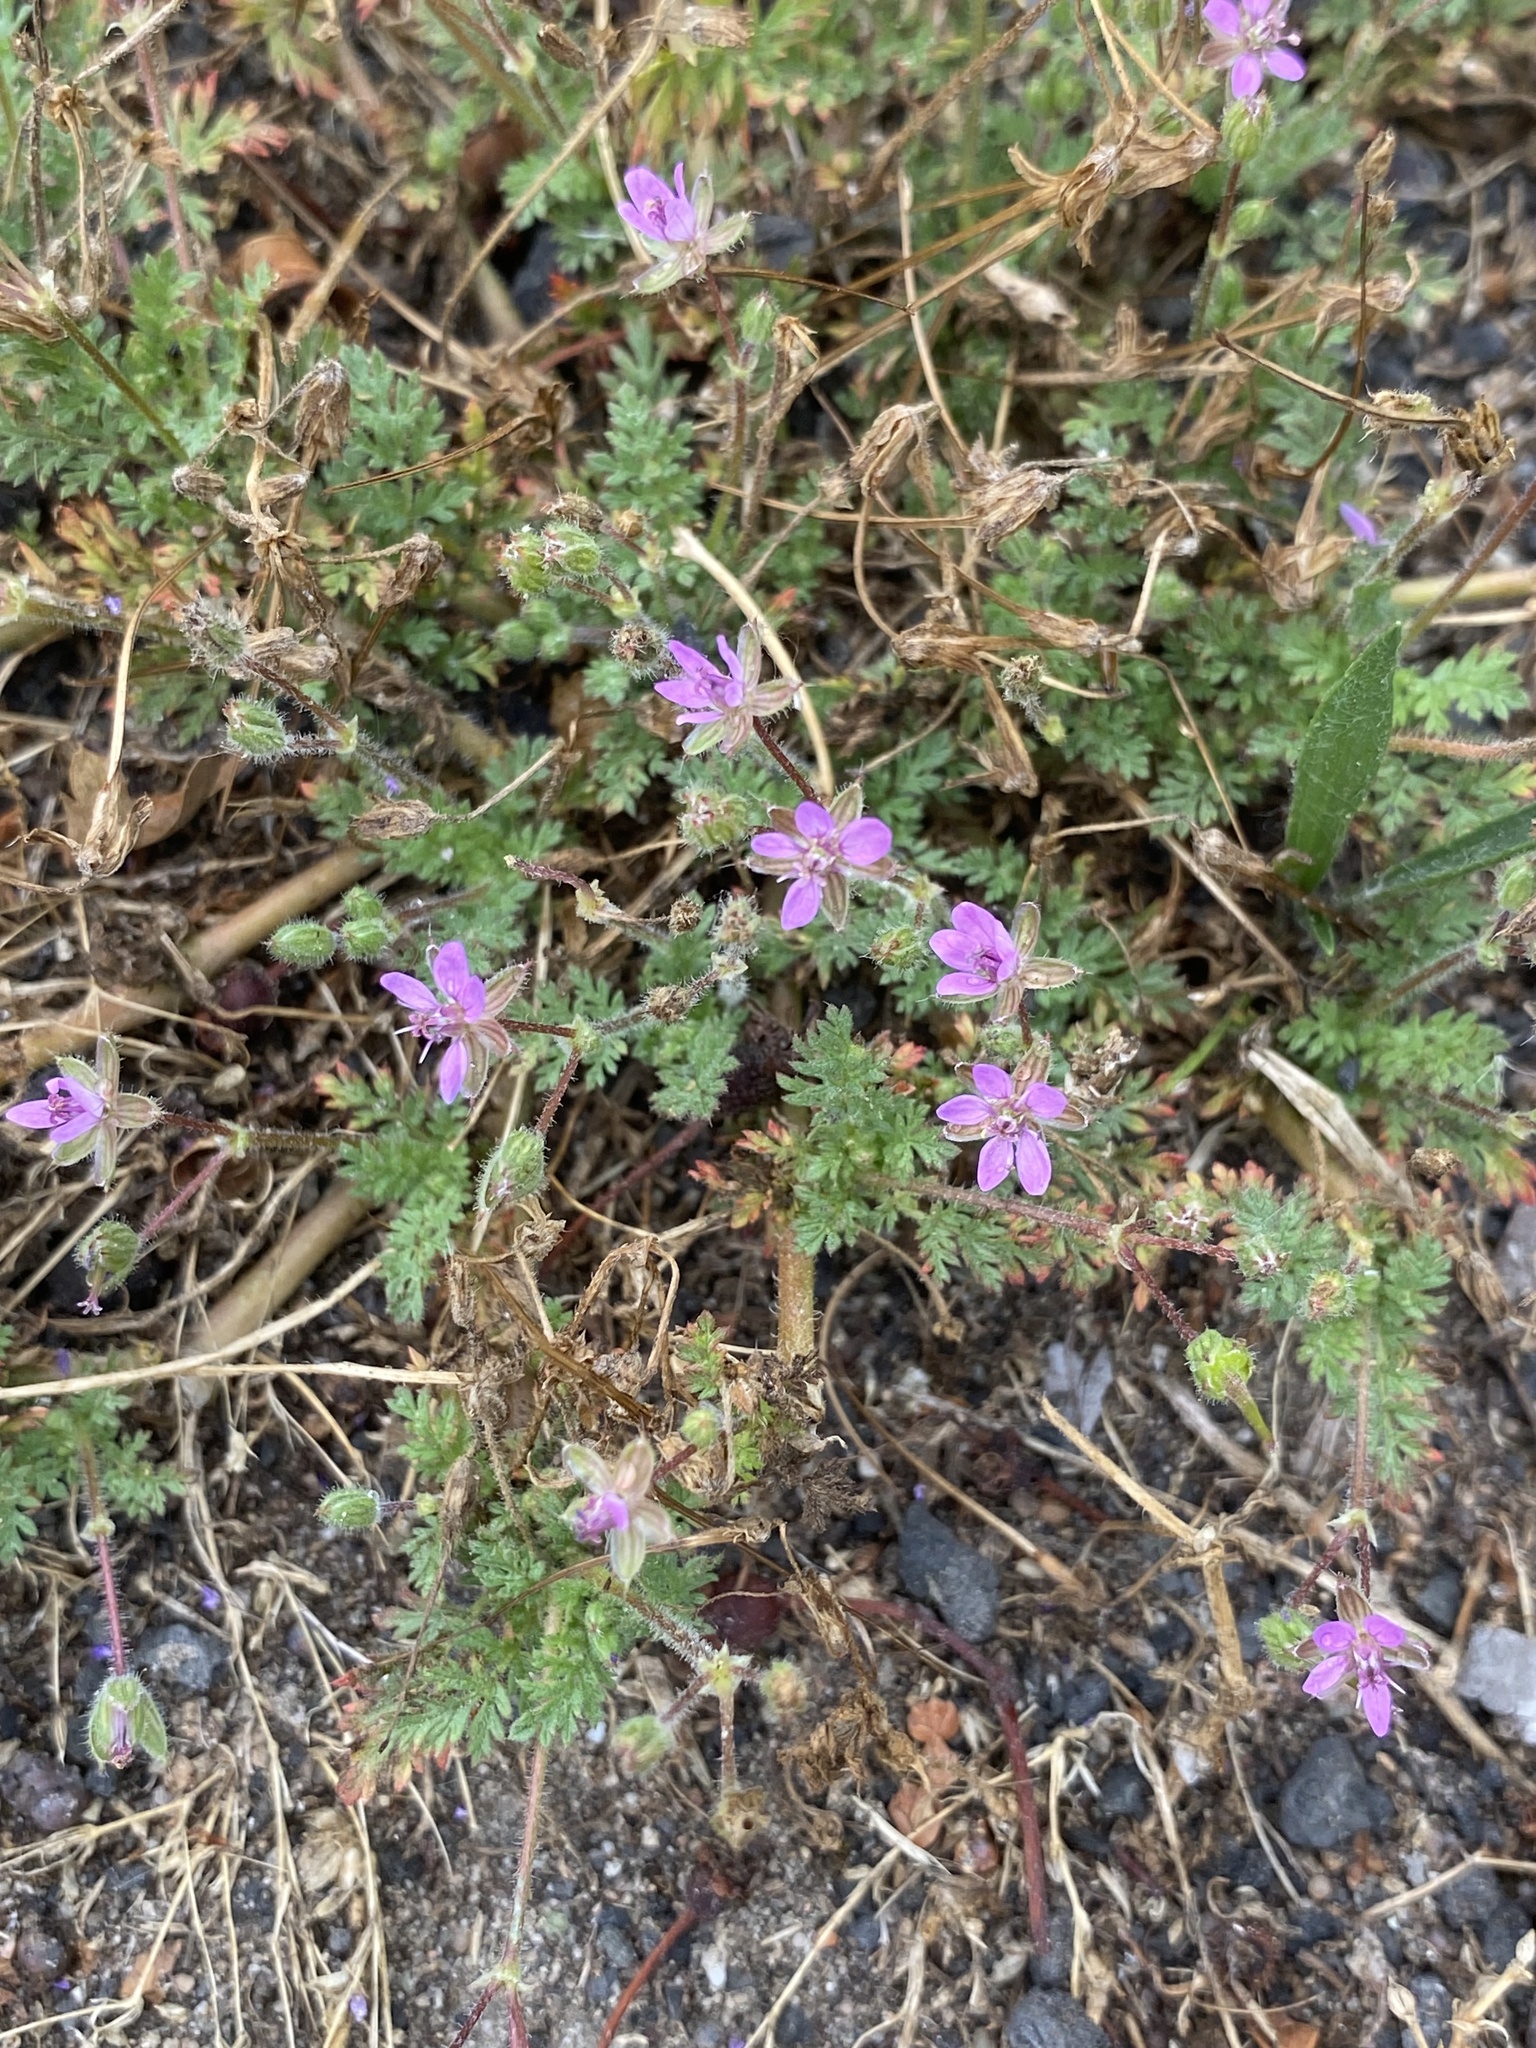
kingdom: Plantae
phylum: Tracheophyta
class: Magnoliopsida
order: Geraniales
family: Geraniaceae
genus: Erodium
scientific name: Erodium cicutarium
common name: Common stork's-bill
